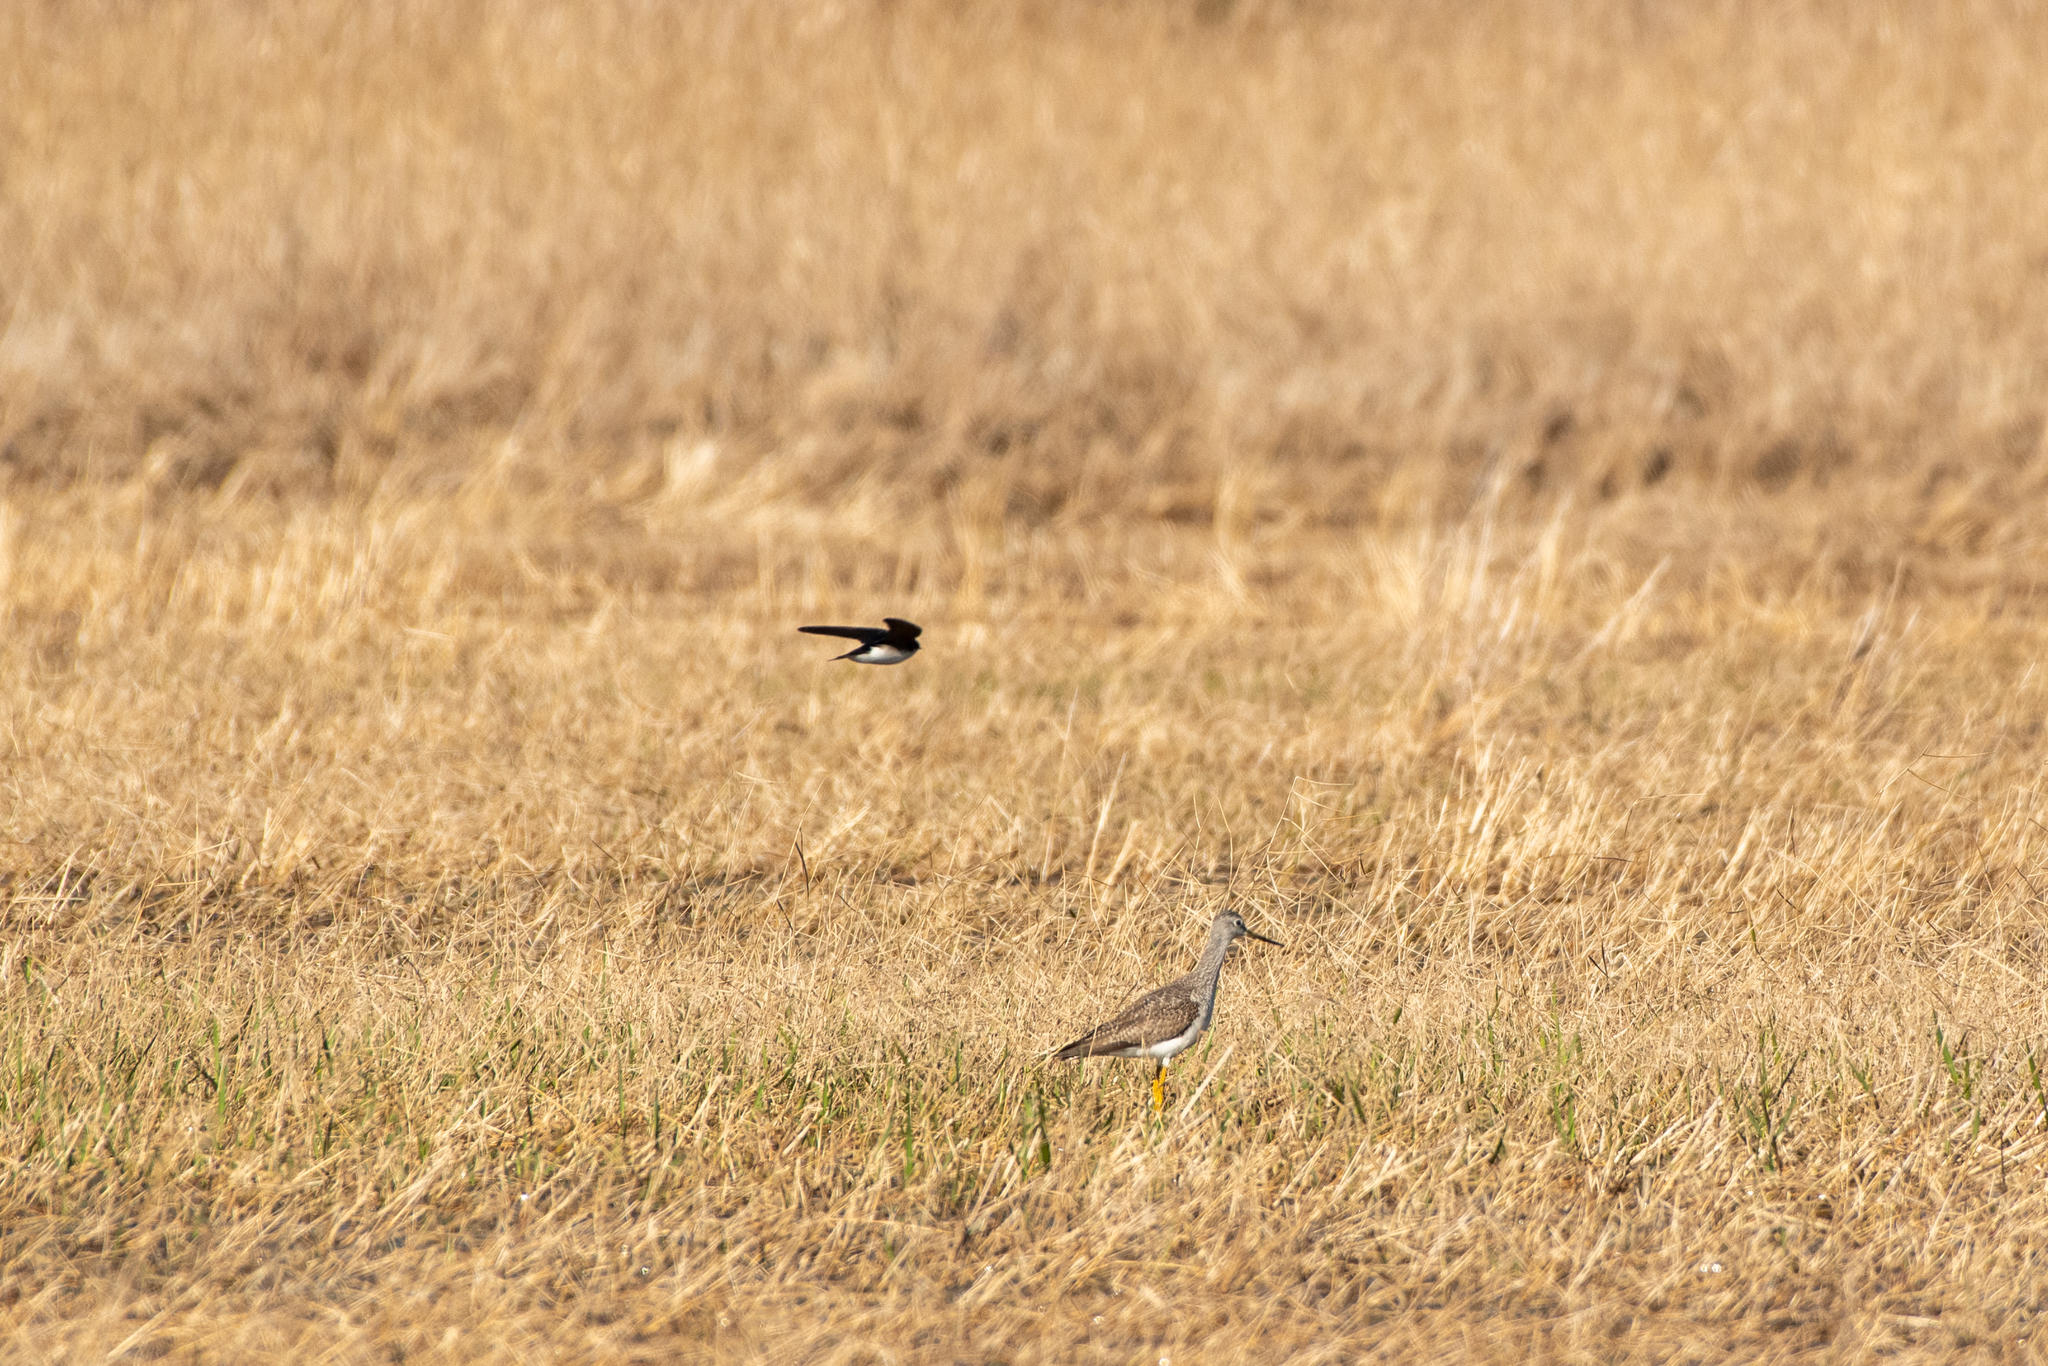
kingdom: Animalia
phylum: Chordata
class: Aves
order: Passeriformes
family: Hirundinidae
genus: Tachycineta
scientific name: Tachycineta bicolor
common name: Tree swallow
